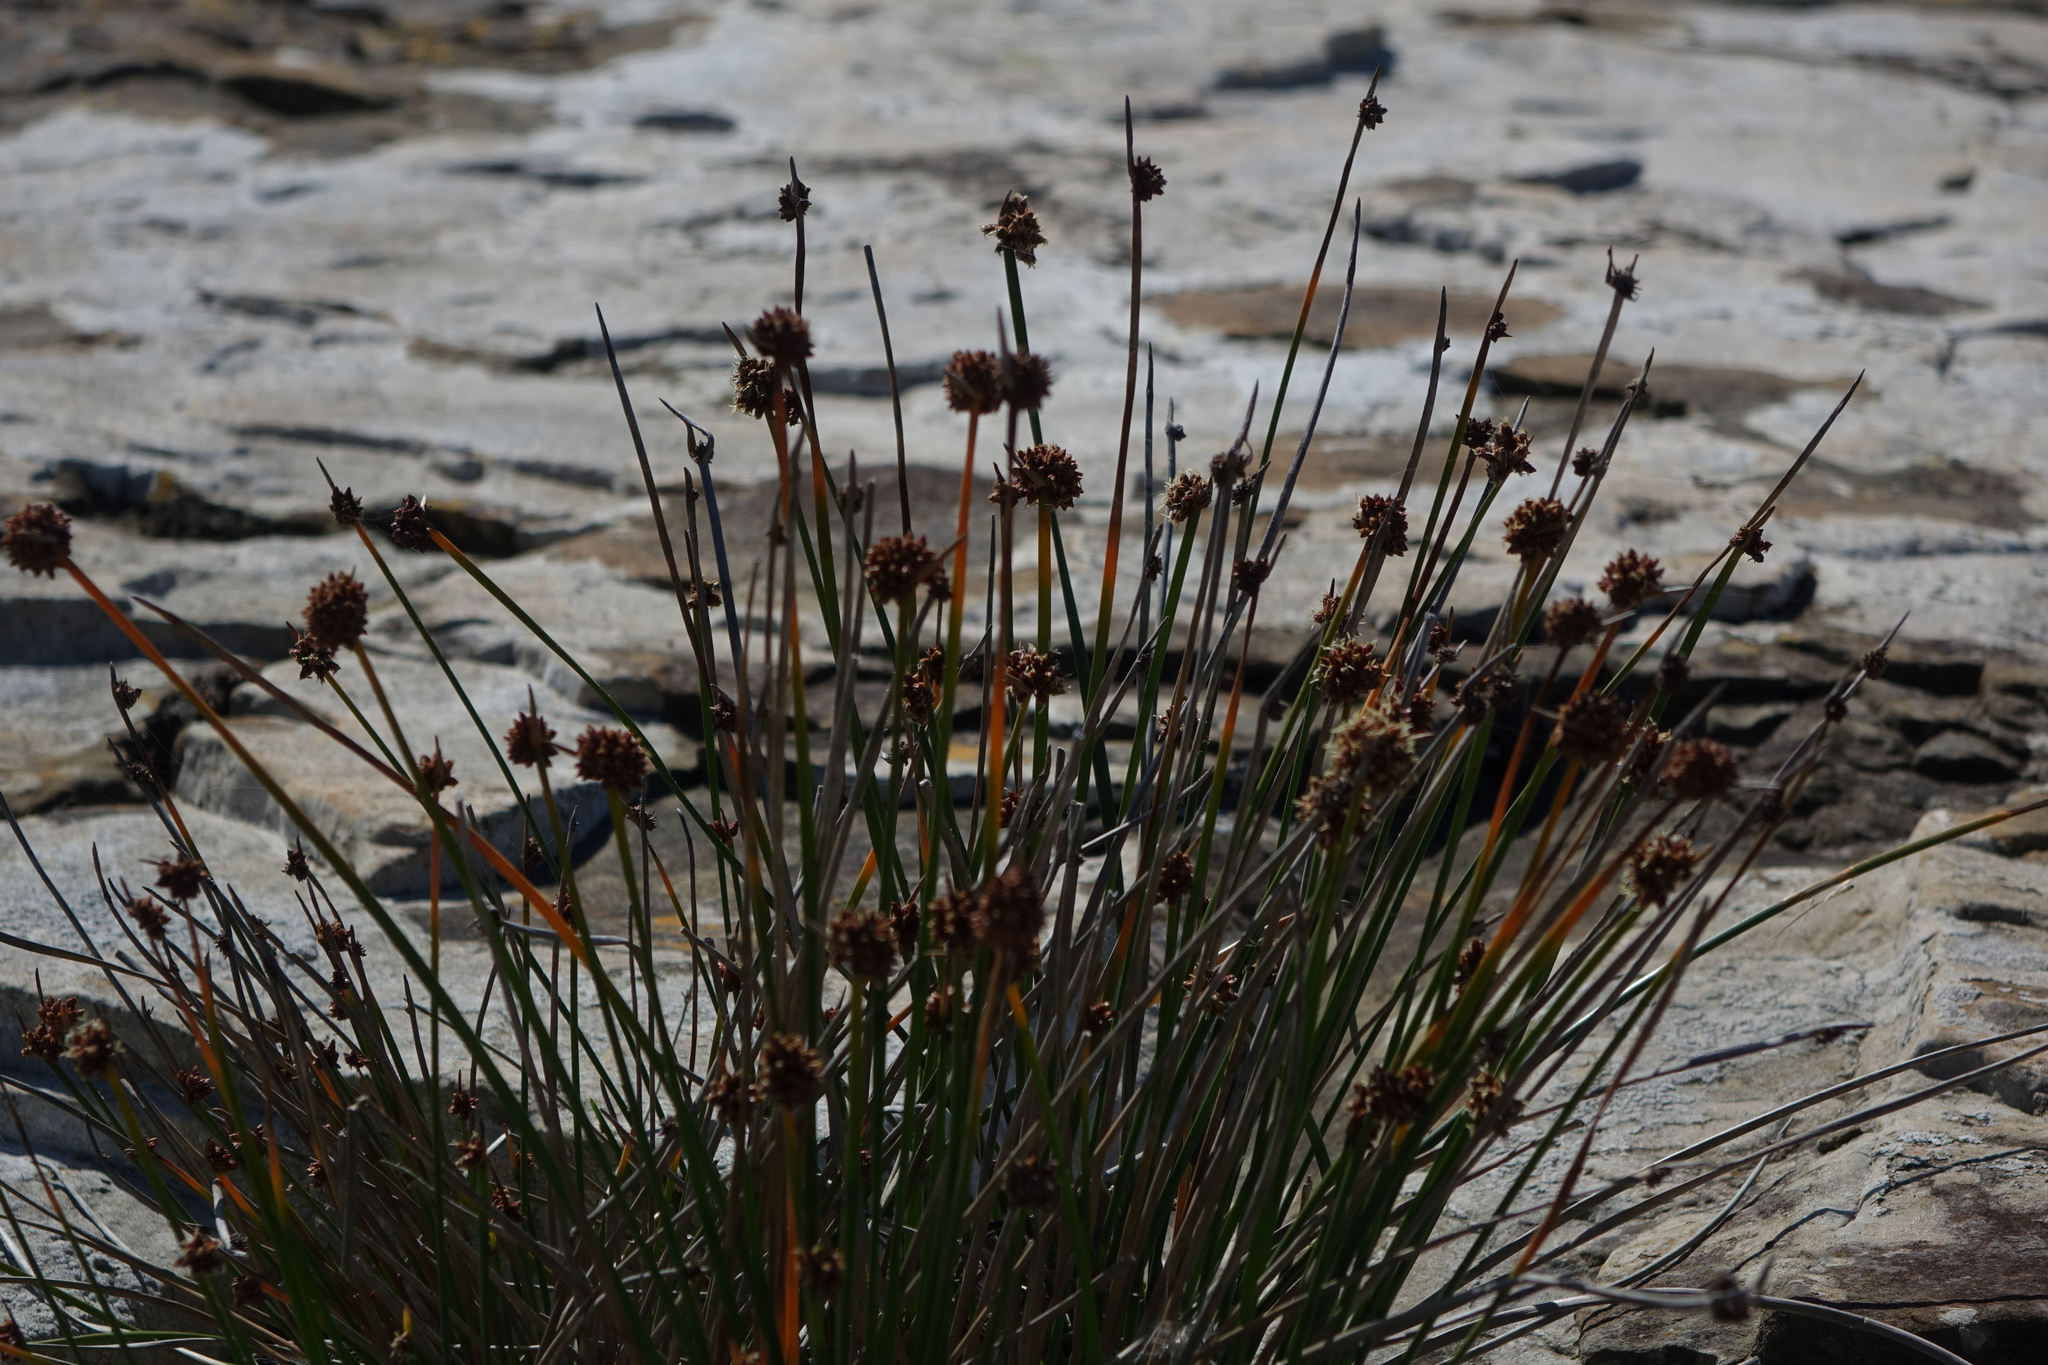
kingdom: Plantae
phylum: Tracheophyta
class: Liliopsida
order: Poales
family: Cyperaceae
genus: Ficinia
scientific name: Ficinia nodosa
